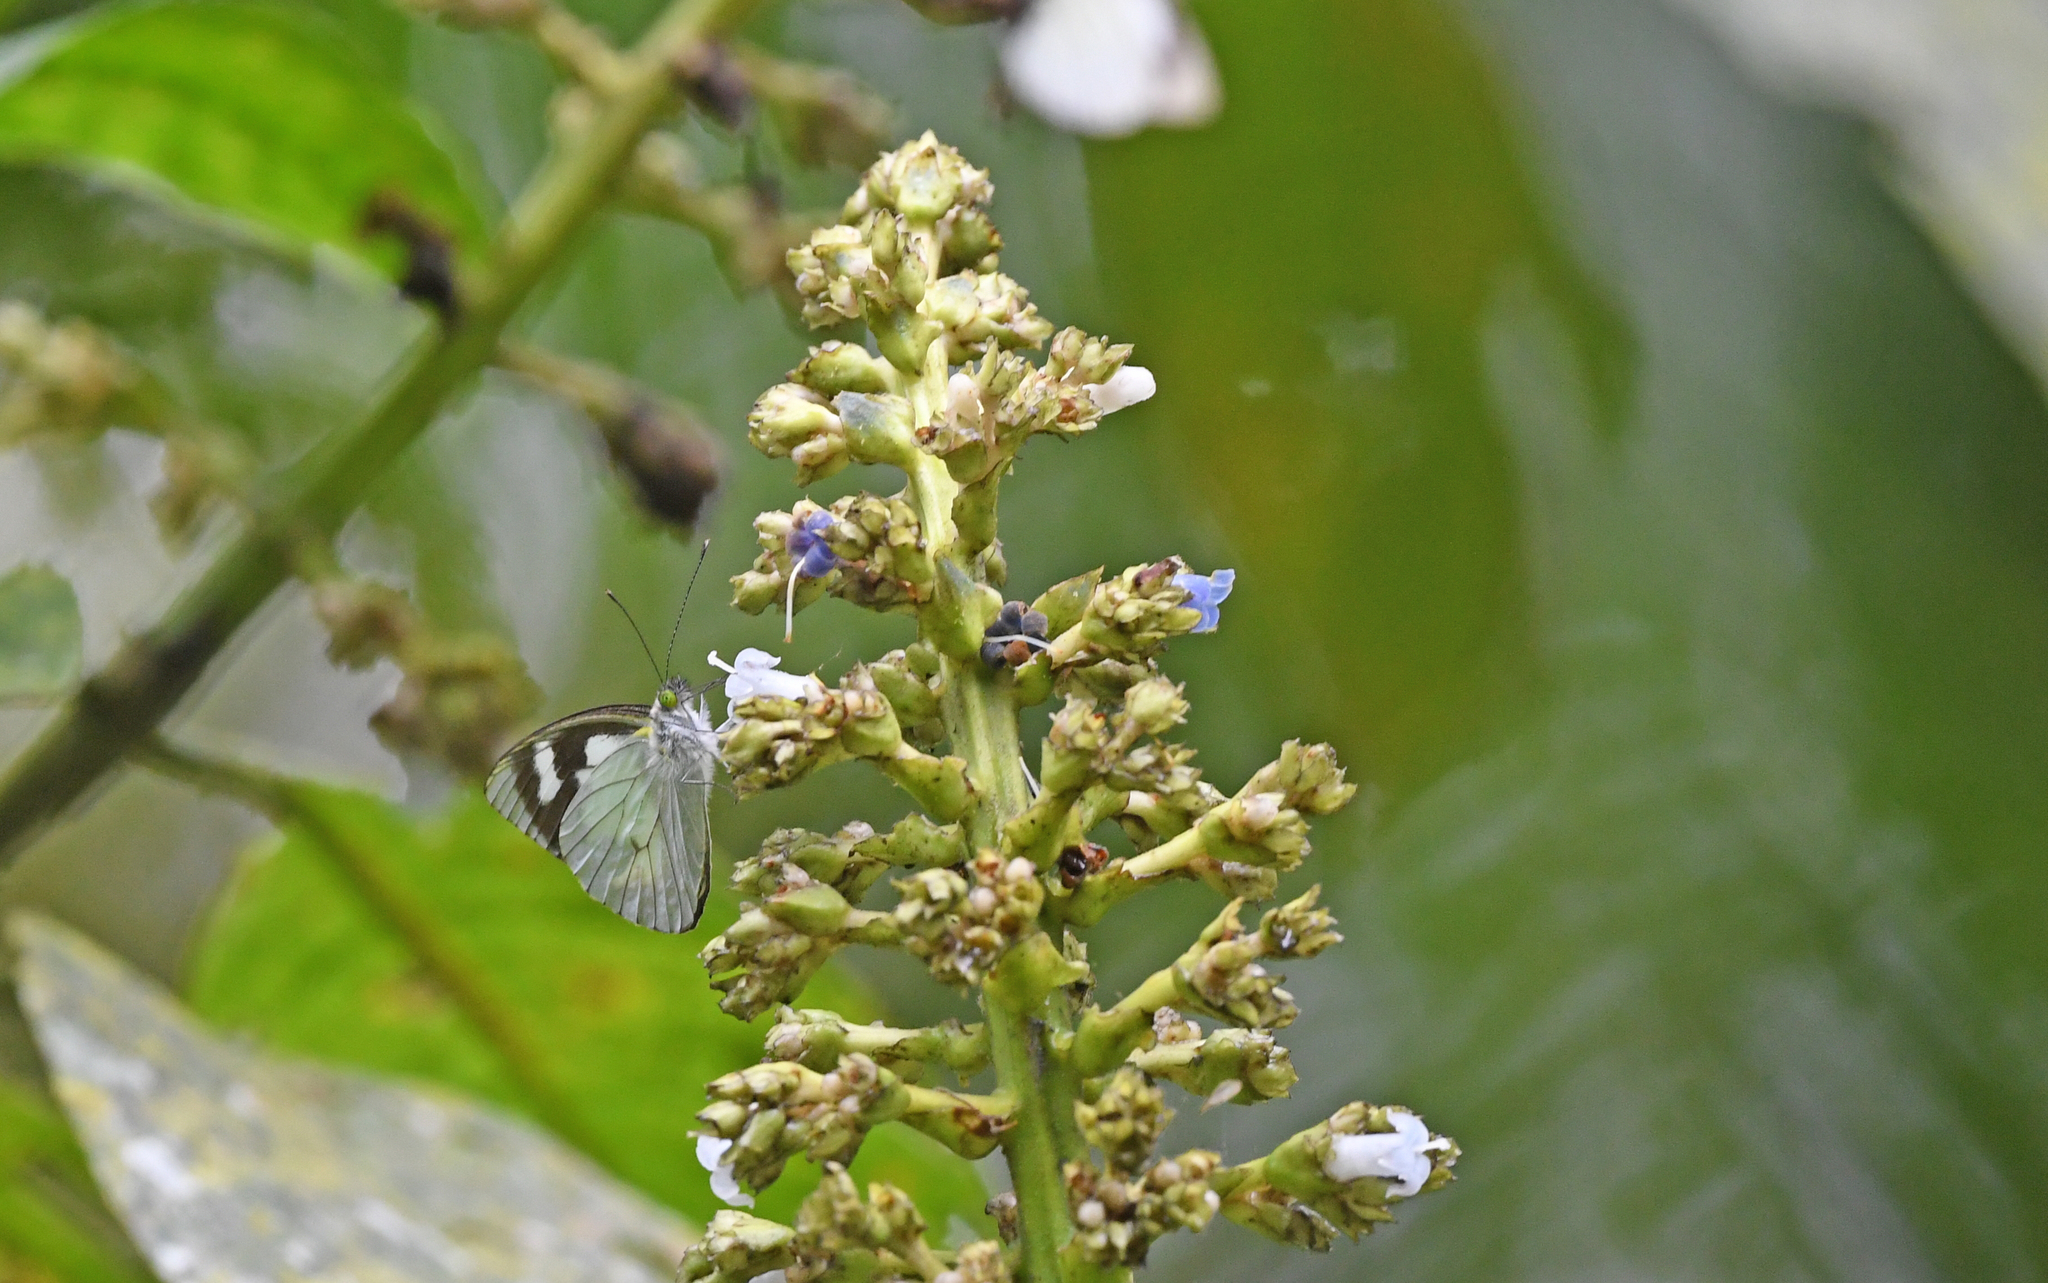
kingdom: Animalia
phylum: Arthropoda
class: Insecta
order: Lepidoptera
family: Pieridae
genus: Leptophobia
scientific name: Leptophobia penthica
